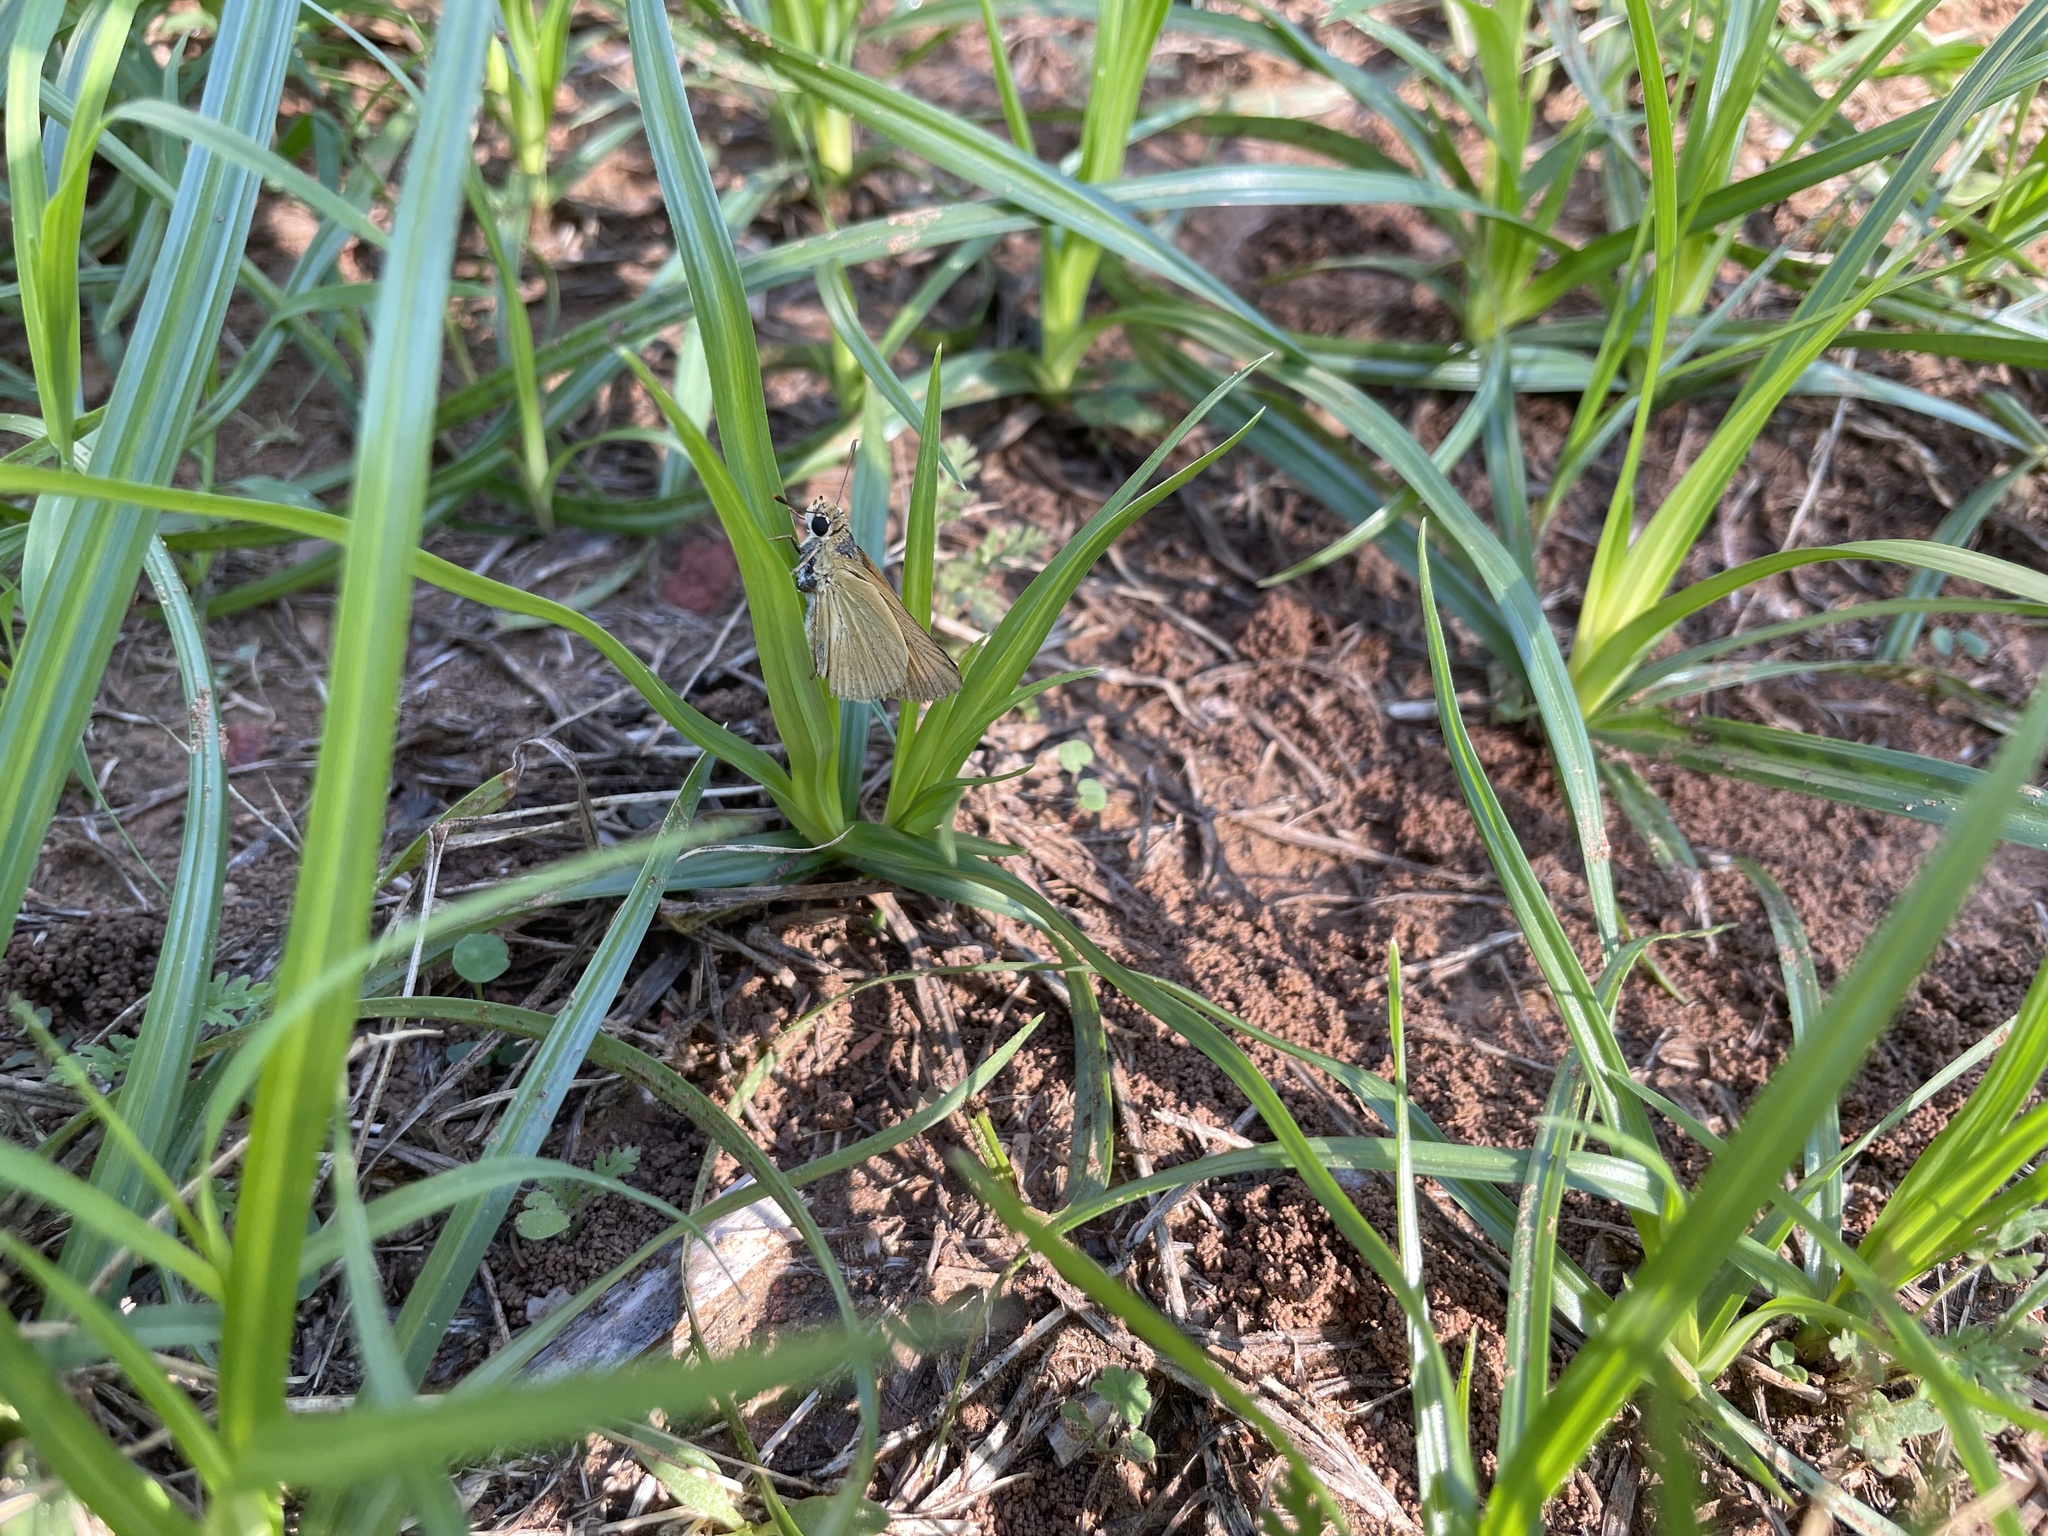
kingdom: Animalia
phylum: Arthropoda
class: Insecta
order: Lepidoptera
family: Hesperiidae
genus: Atrytone
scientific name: Atrytone delaware
